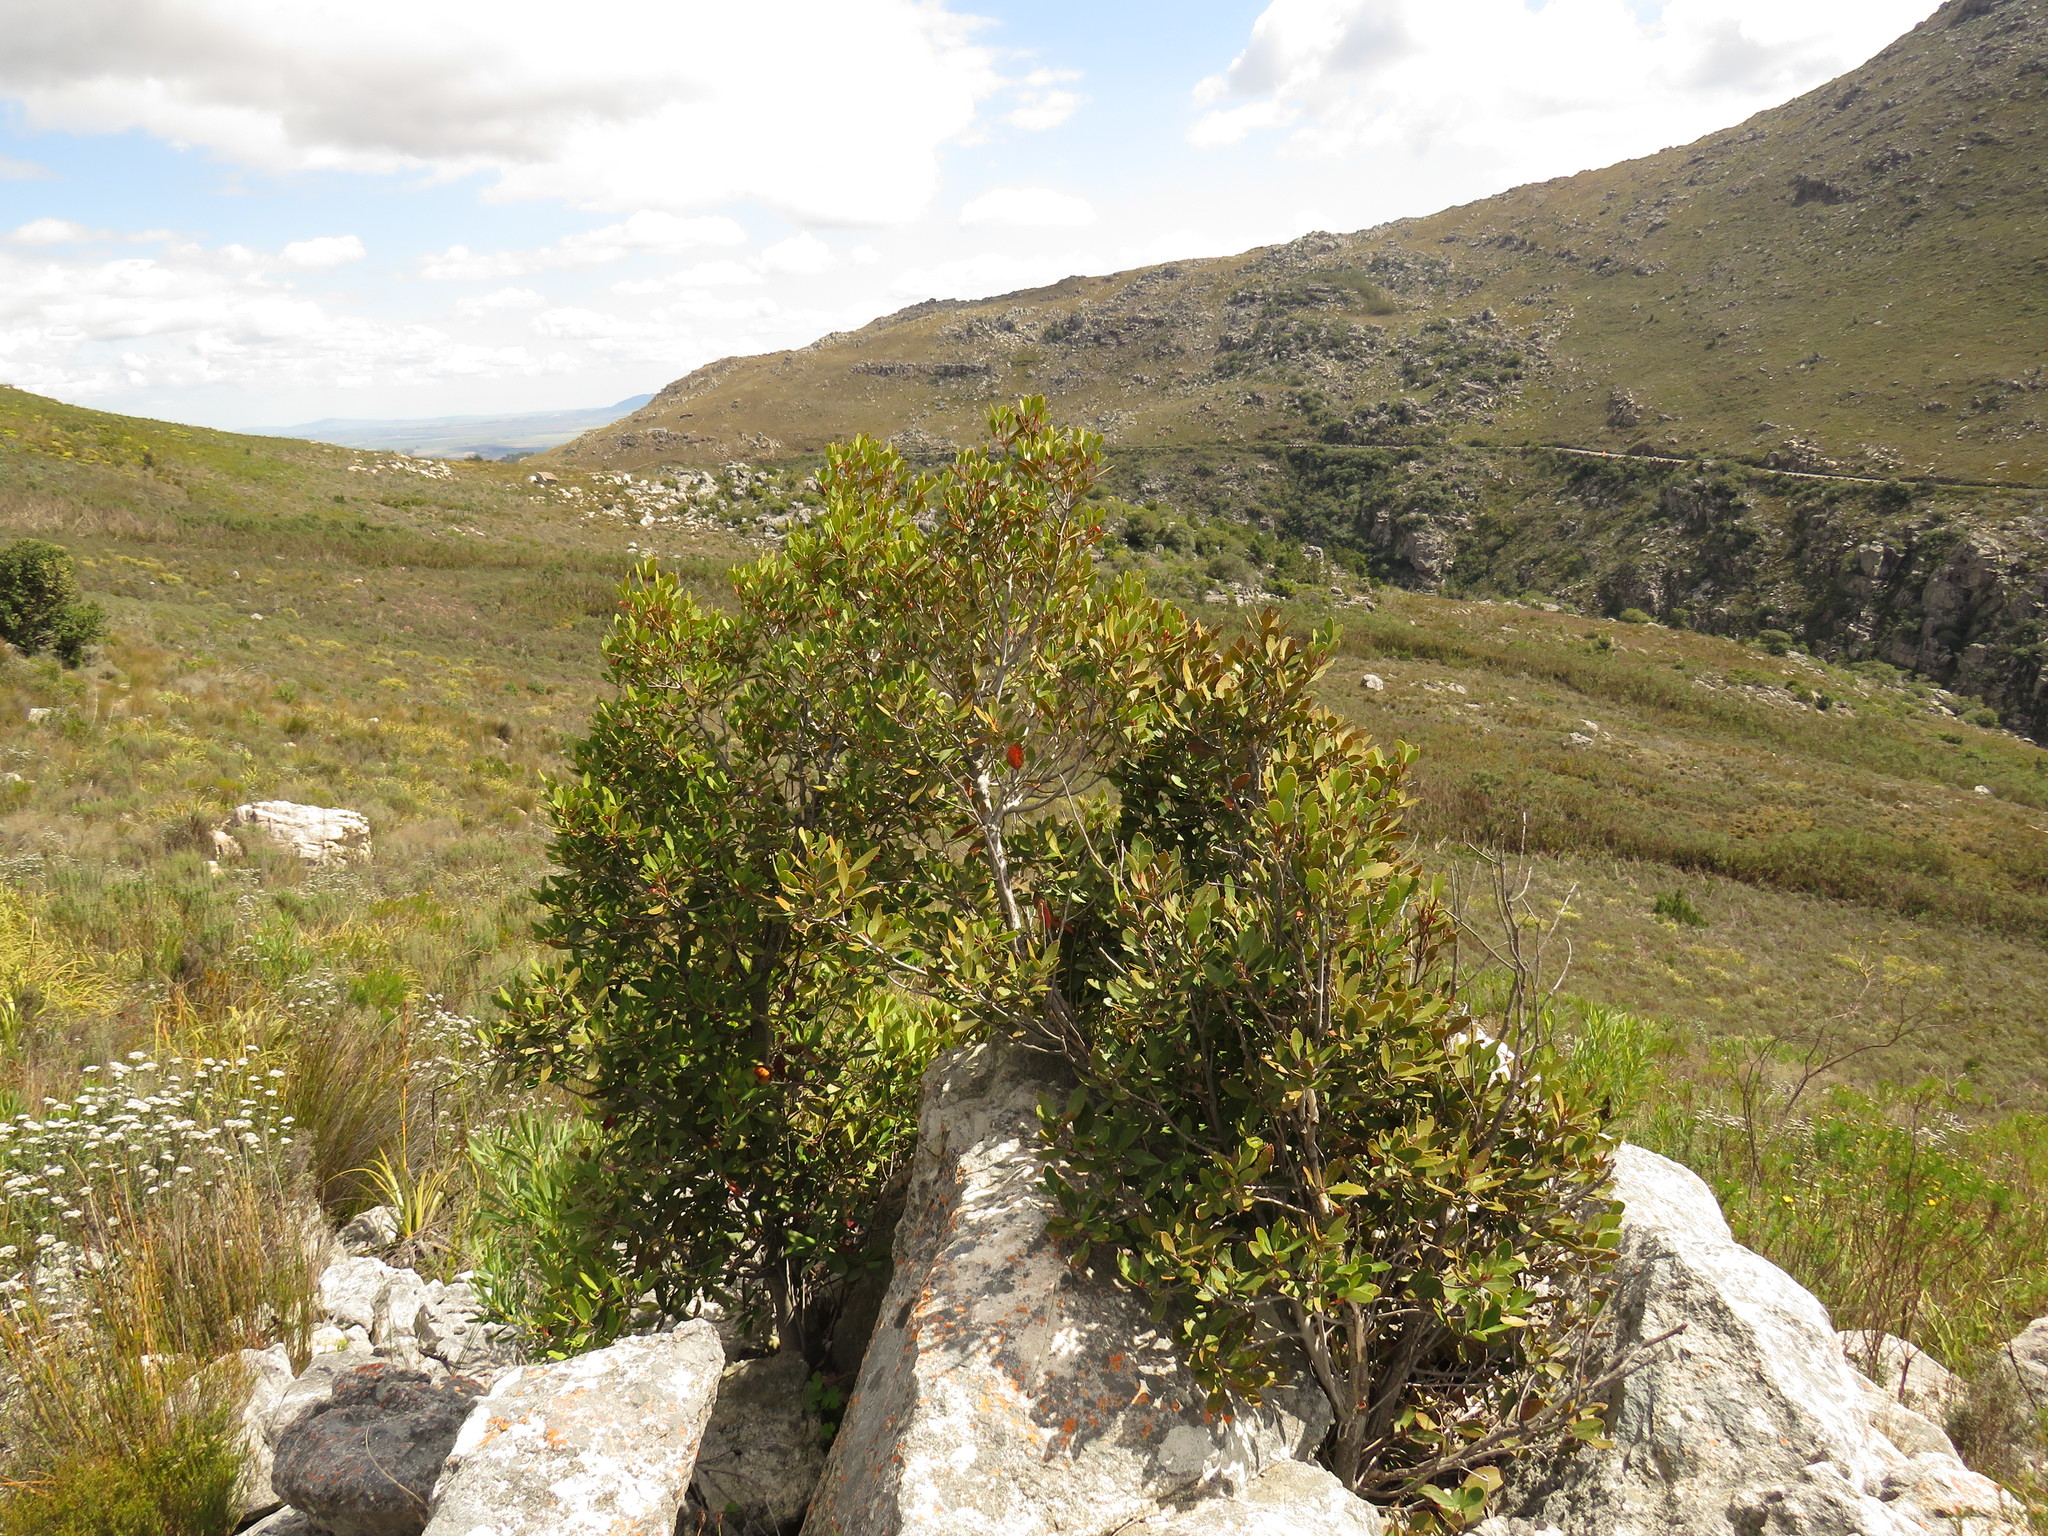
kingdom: Plantae
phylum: Tracheophyta
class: Magnoliopsida
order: Celastrales
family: Celastraceae
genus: Elaeodendron
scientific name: Elaeodendron schinoides
